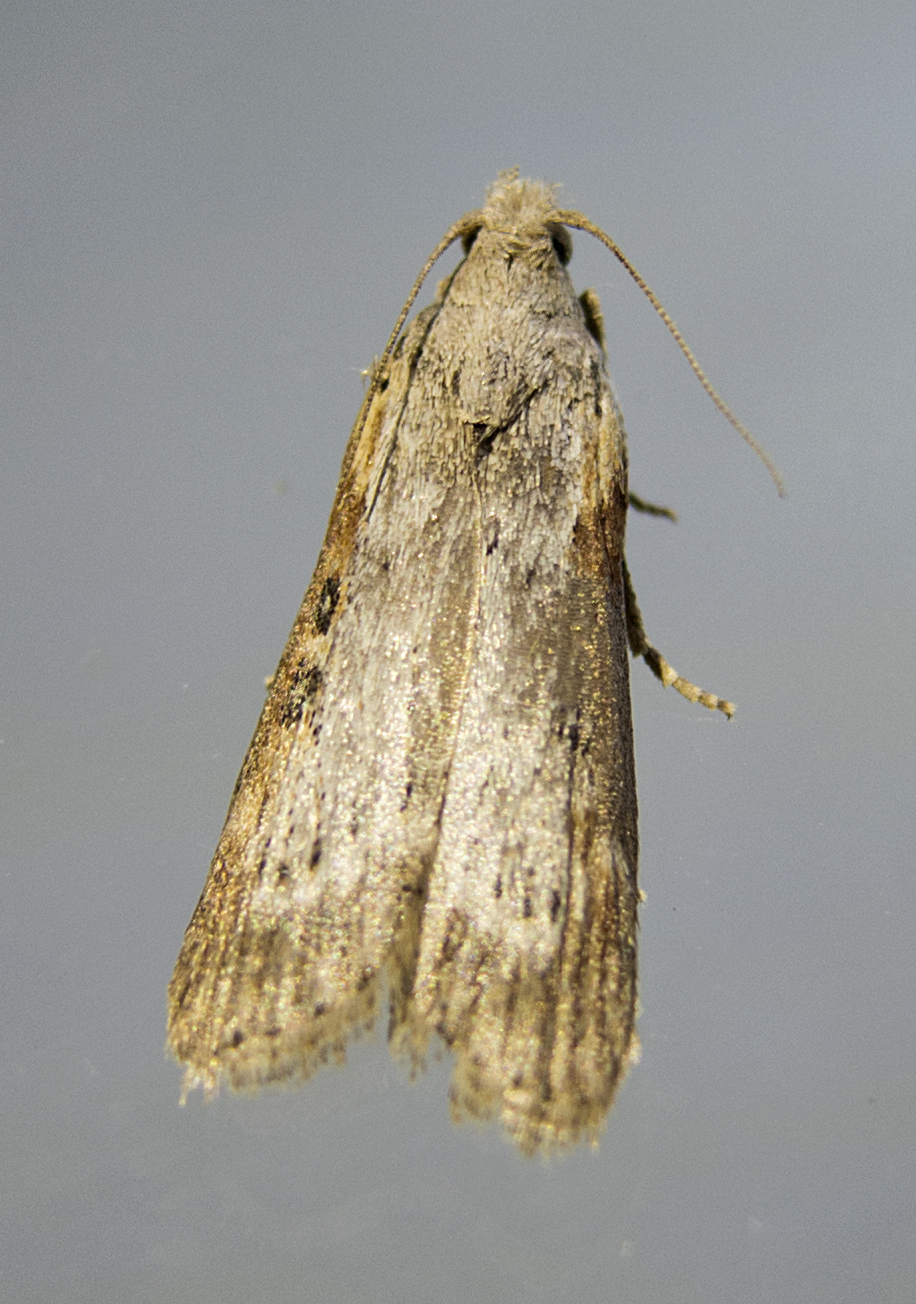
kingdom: Animalia
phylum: Arthropoda
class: Insecta
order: Lepidoptera
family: Pyralidae
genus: Lamoria
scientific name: Lamoria anella
